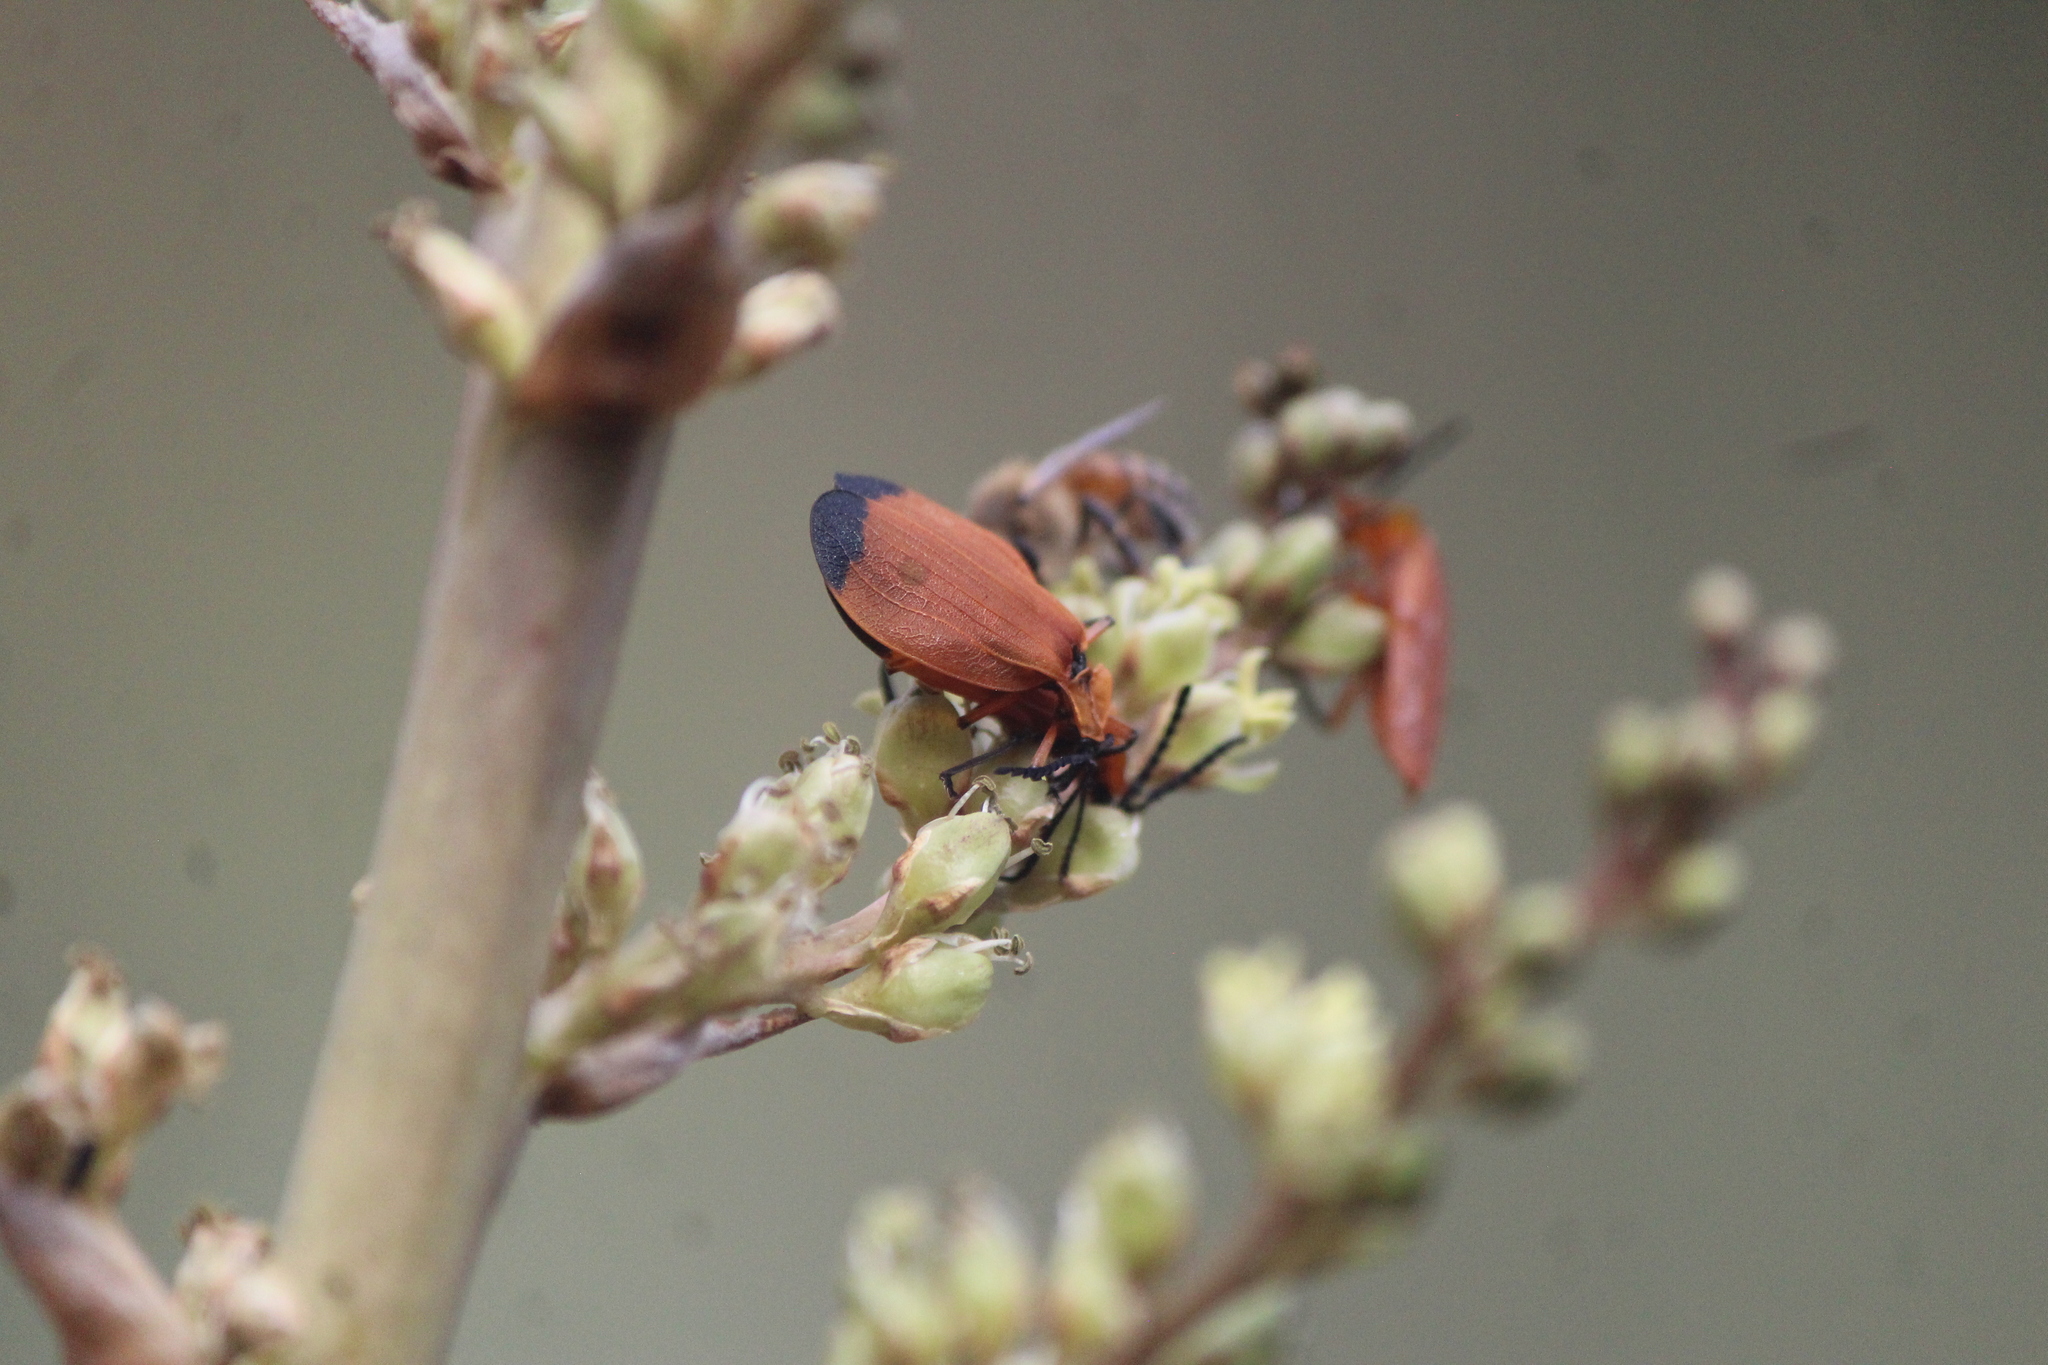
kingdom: Animalia
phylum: Arthropoda
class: Insecta
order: Coleoptera
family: Lycidae
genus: Lycus
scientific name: Lycus fernandezi
